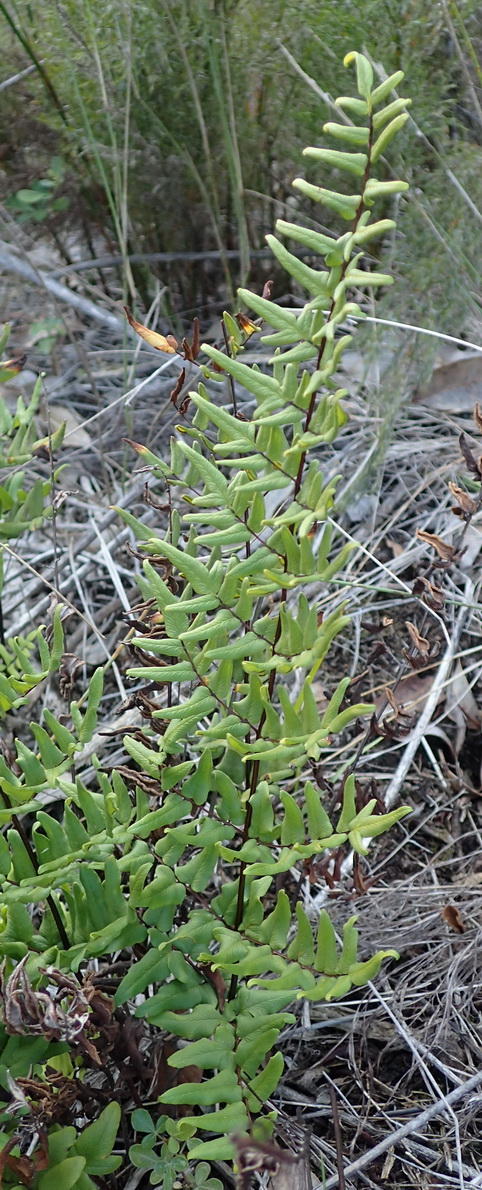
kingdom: Plantae
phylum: Tracheophyta
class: Polypodiopsida
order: Polypodiales
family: Pteridaceae
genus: Cheilanthes
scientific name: Cheilanthes viridis
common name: Green cliffbrake
